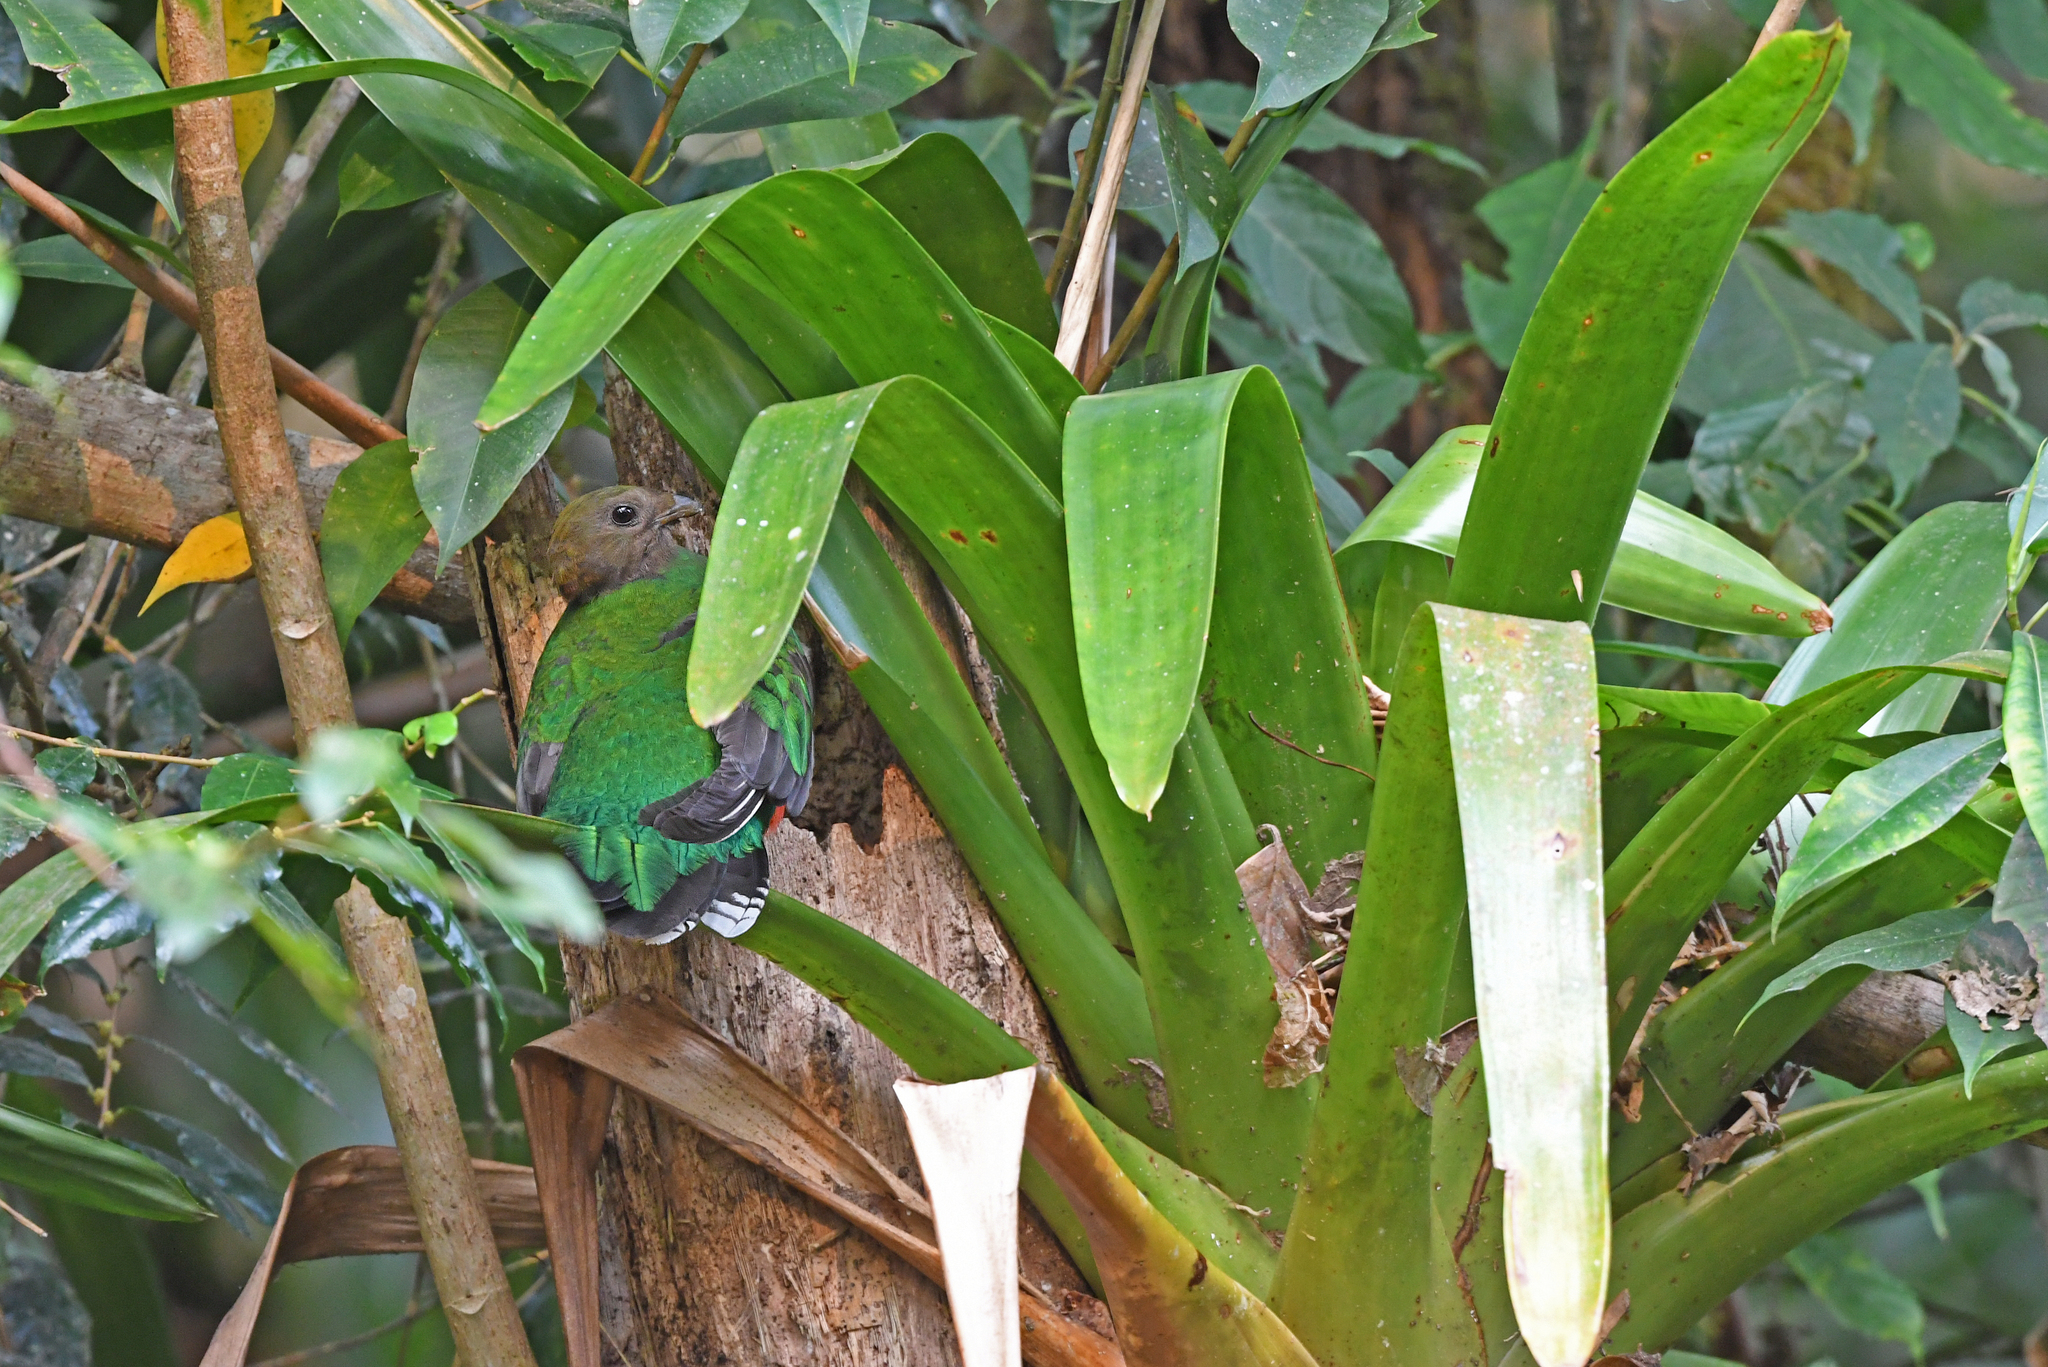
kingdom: Animalia
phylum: Chordata
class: Aves
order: Trogoniformes
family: Trogonidae
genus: Pharomachrus
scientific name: Pharomachrus fulgidus
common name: White-tipped quetzal
